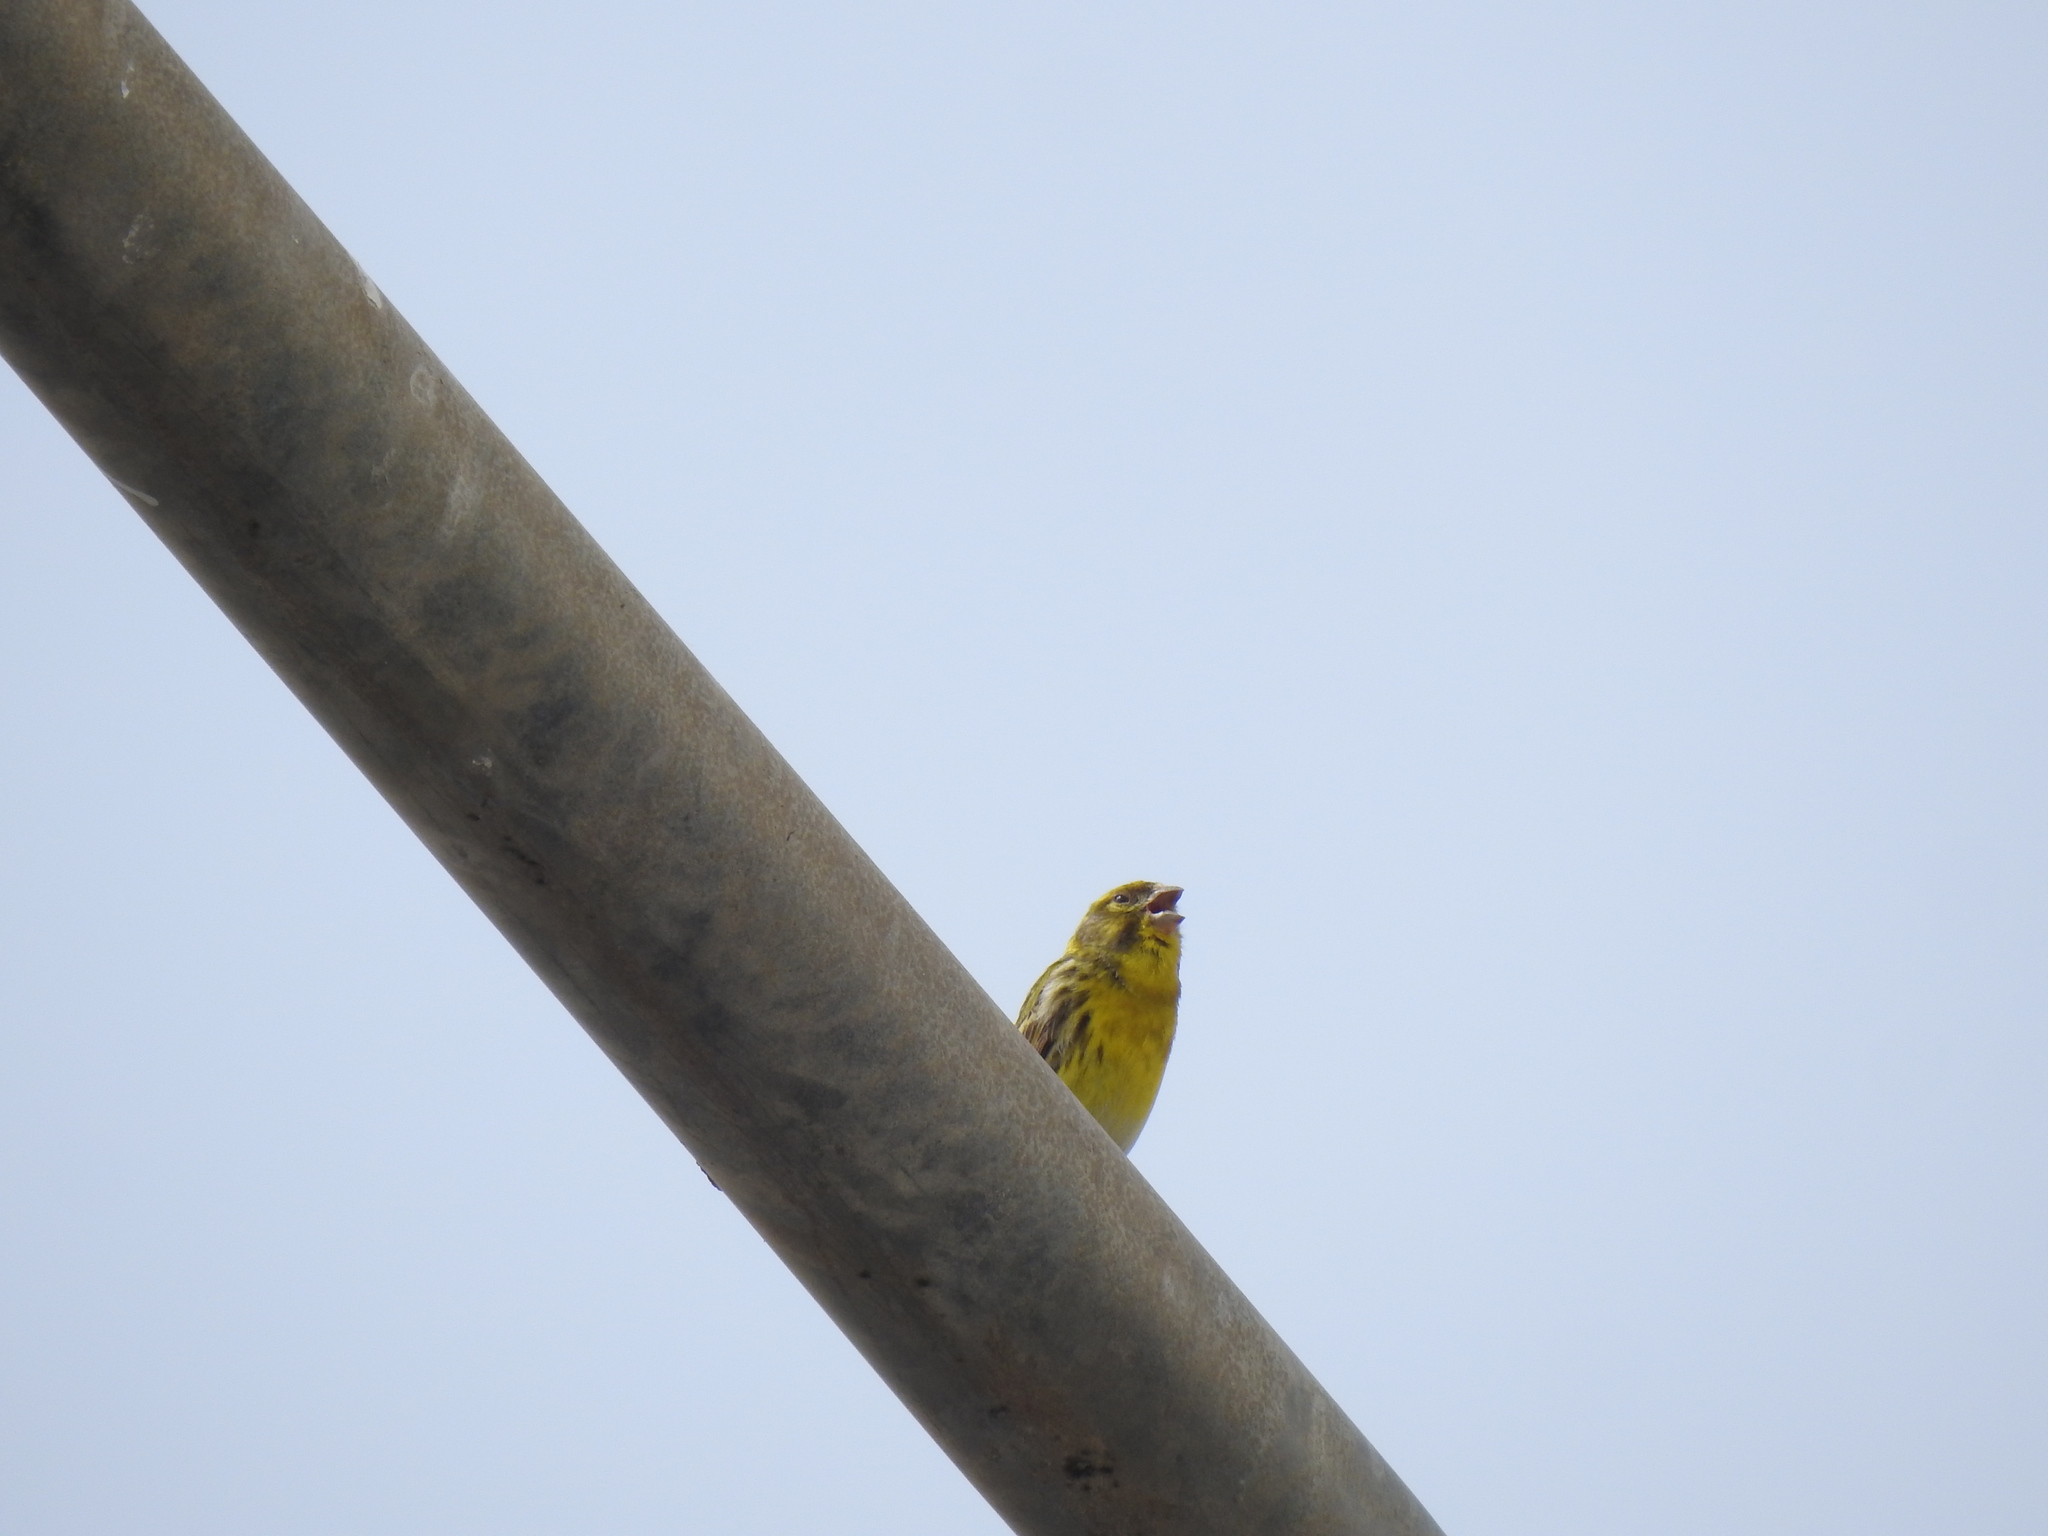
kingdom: Animalia
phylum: Chordata
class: Aves
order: Passeriformes
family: Fringillidae
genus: Serinus
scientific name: Serinus serinus
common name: European serin
